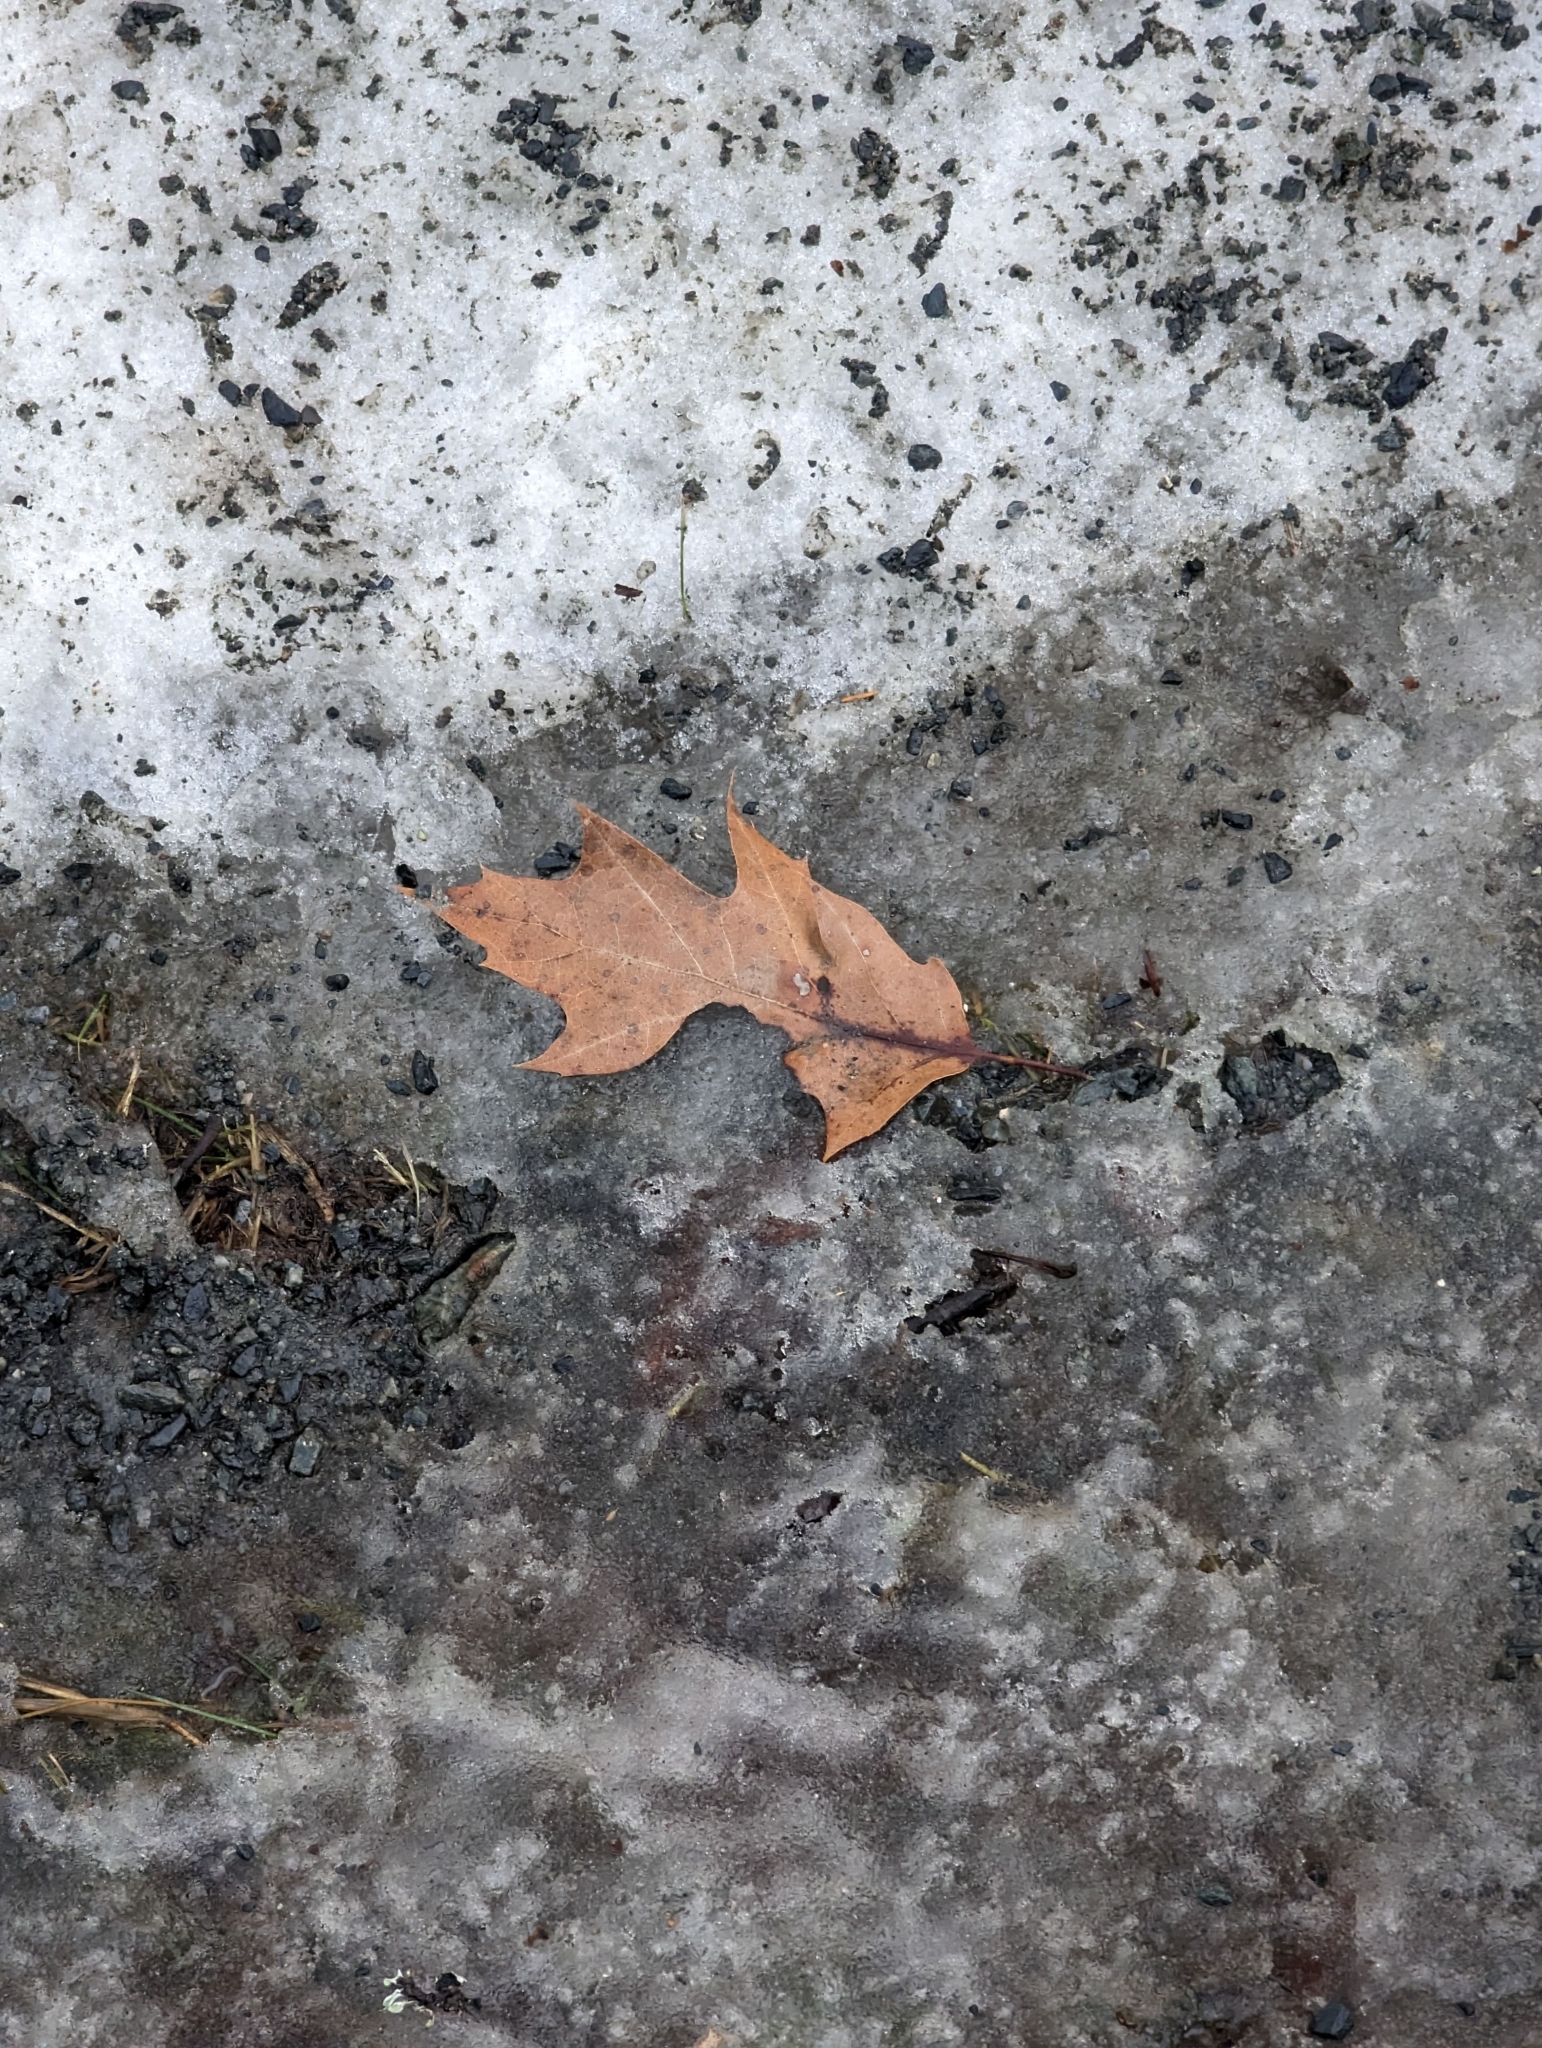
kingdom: Plantae
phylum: Tracheophyta
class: Magnoliopsida
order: Fagales
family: Fagaceae
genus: Quercus
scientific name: Quercus rubra
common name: Red oak
